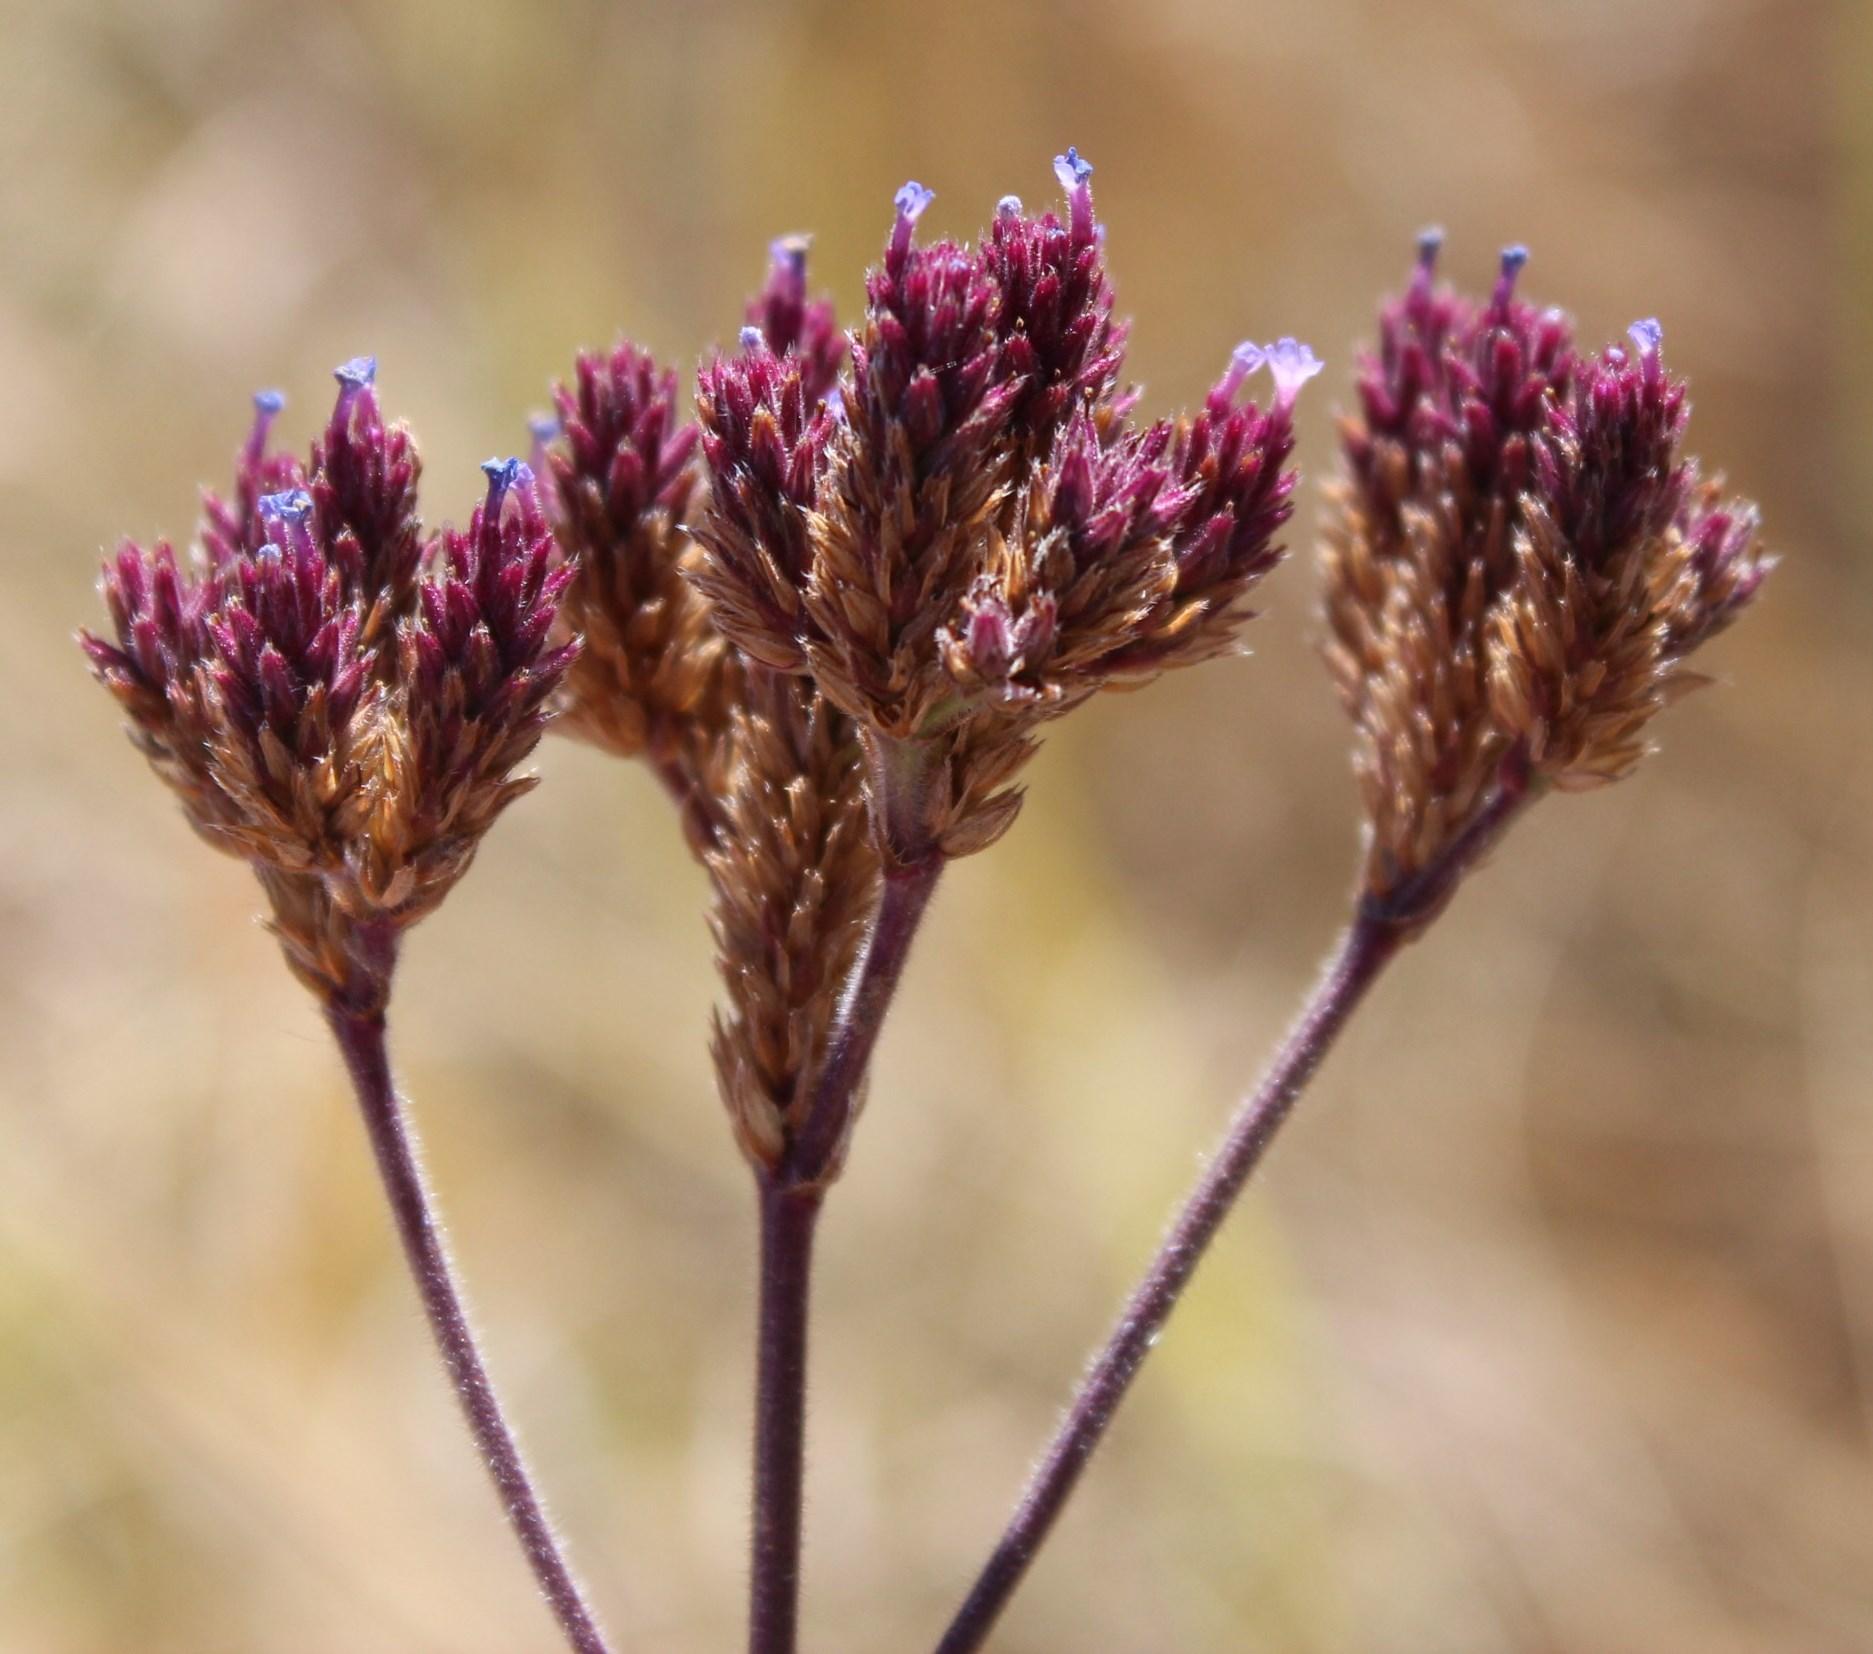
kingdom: Plantae
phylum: Tracheophyta
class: Magnoliopsida
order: Lamiales
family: Verbenaceae
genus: Verbena
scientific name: Verbena bonariensis
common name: Purpletop vervain
